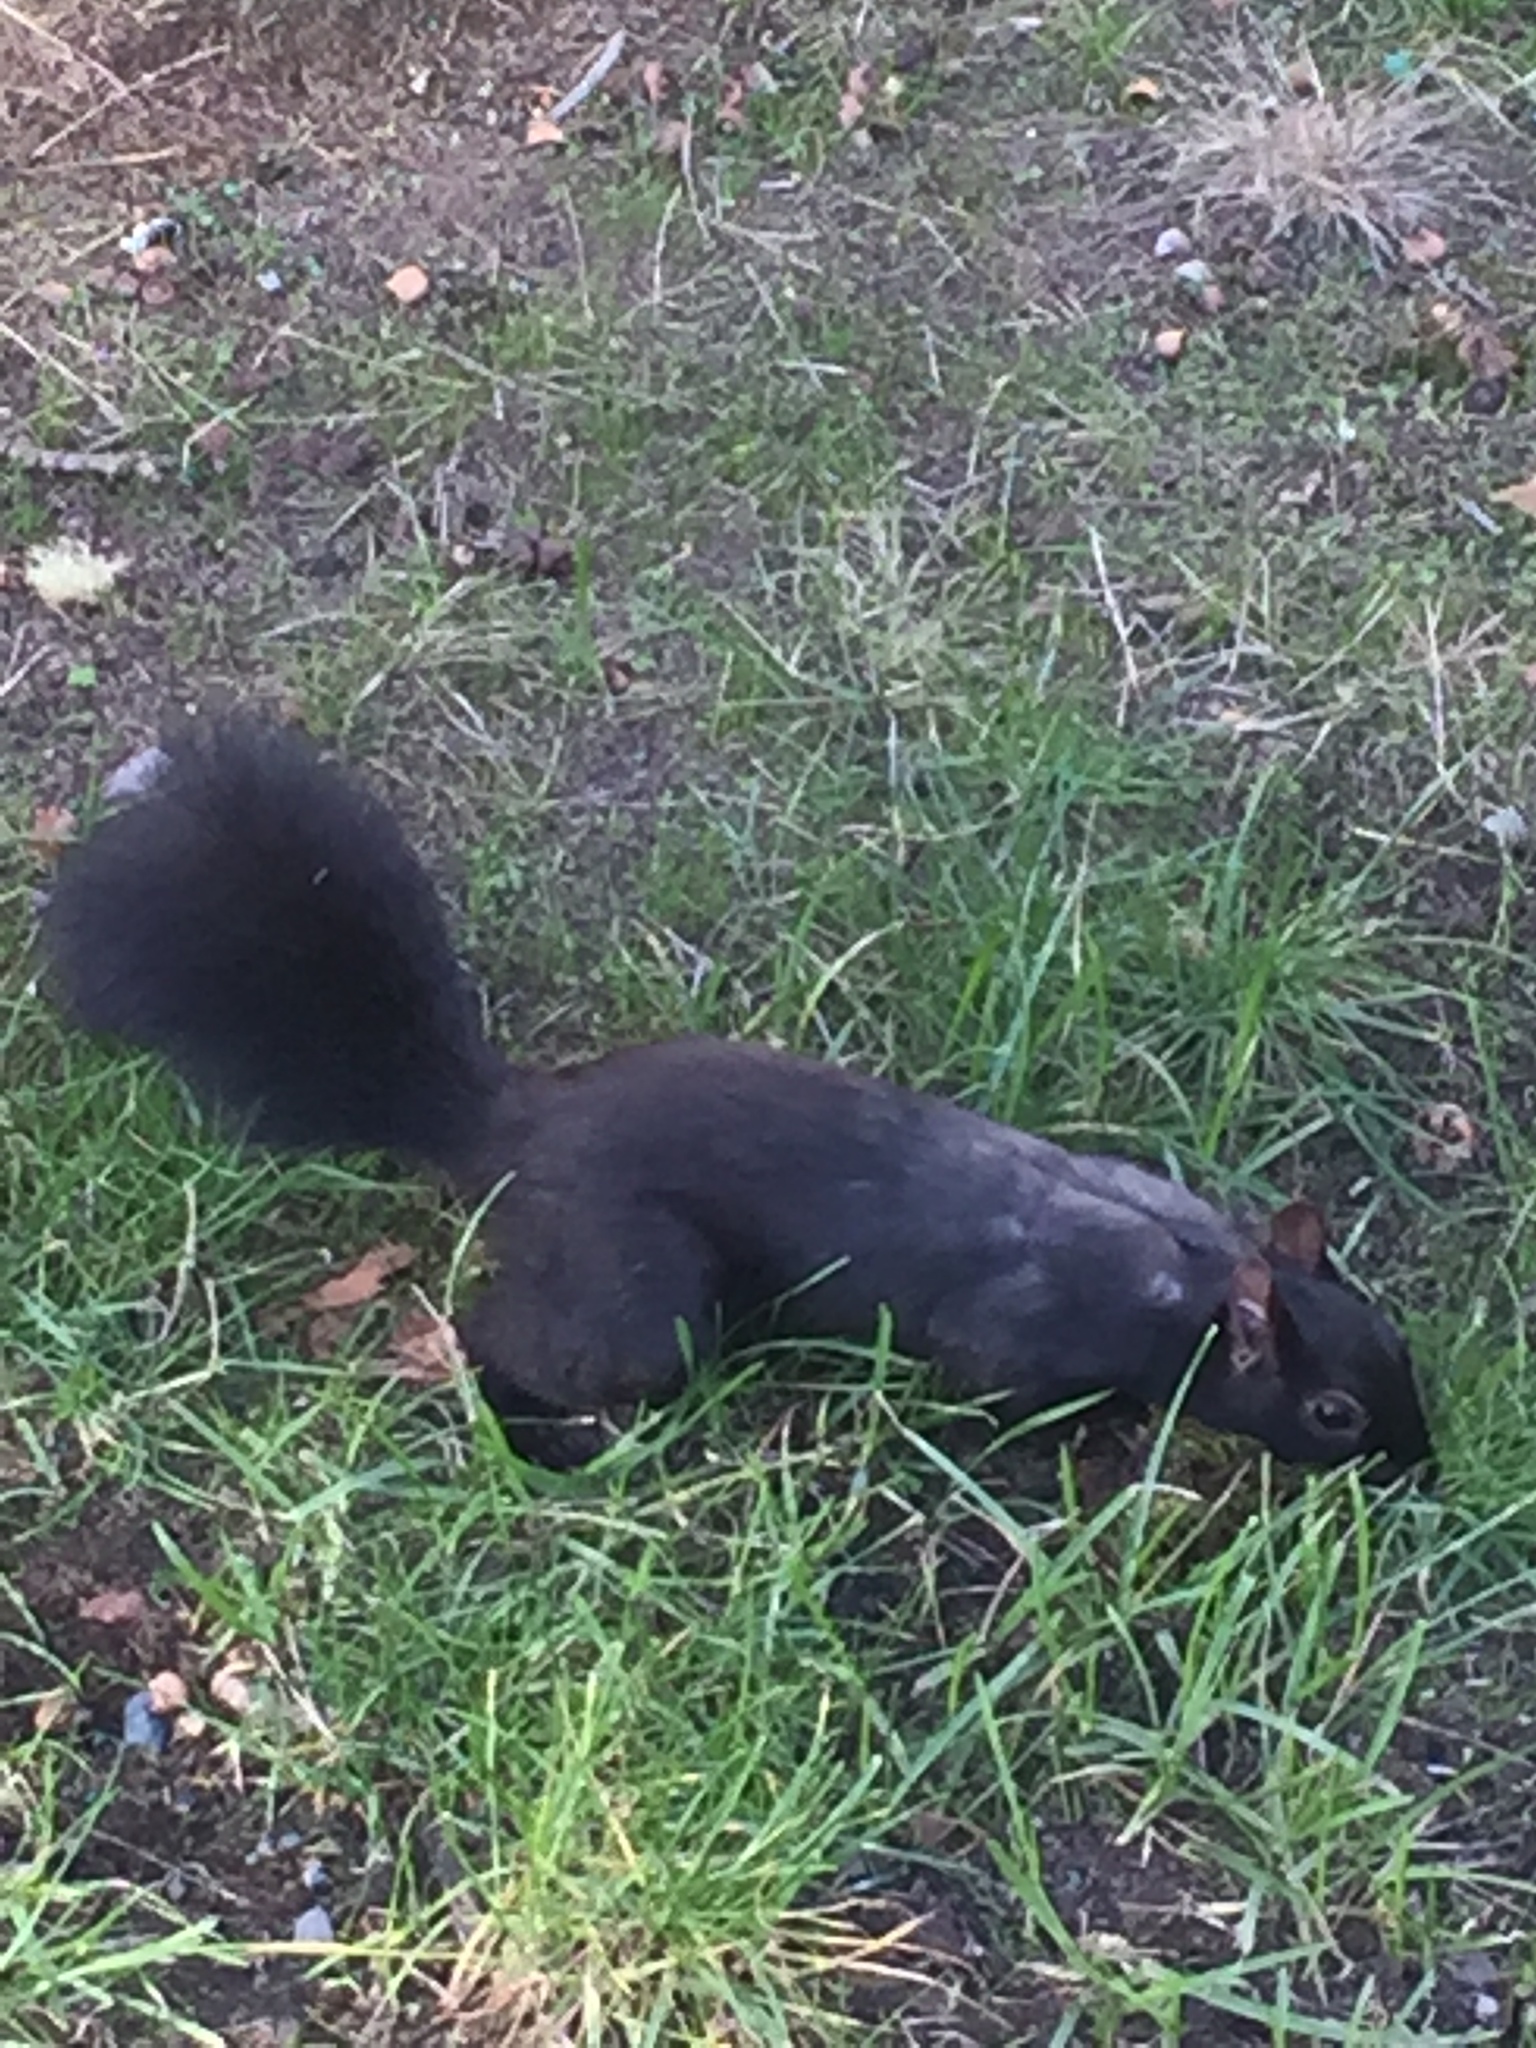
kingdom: Animalia
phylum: Chordata
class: Mammalia
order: Rodentia
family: Sciuridae
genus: Sciurus
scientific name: Sciurus carolinensis
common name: Eastern gray squirrel
